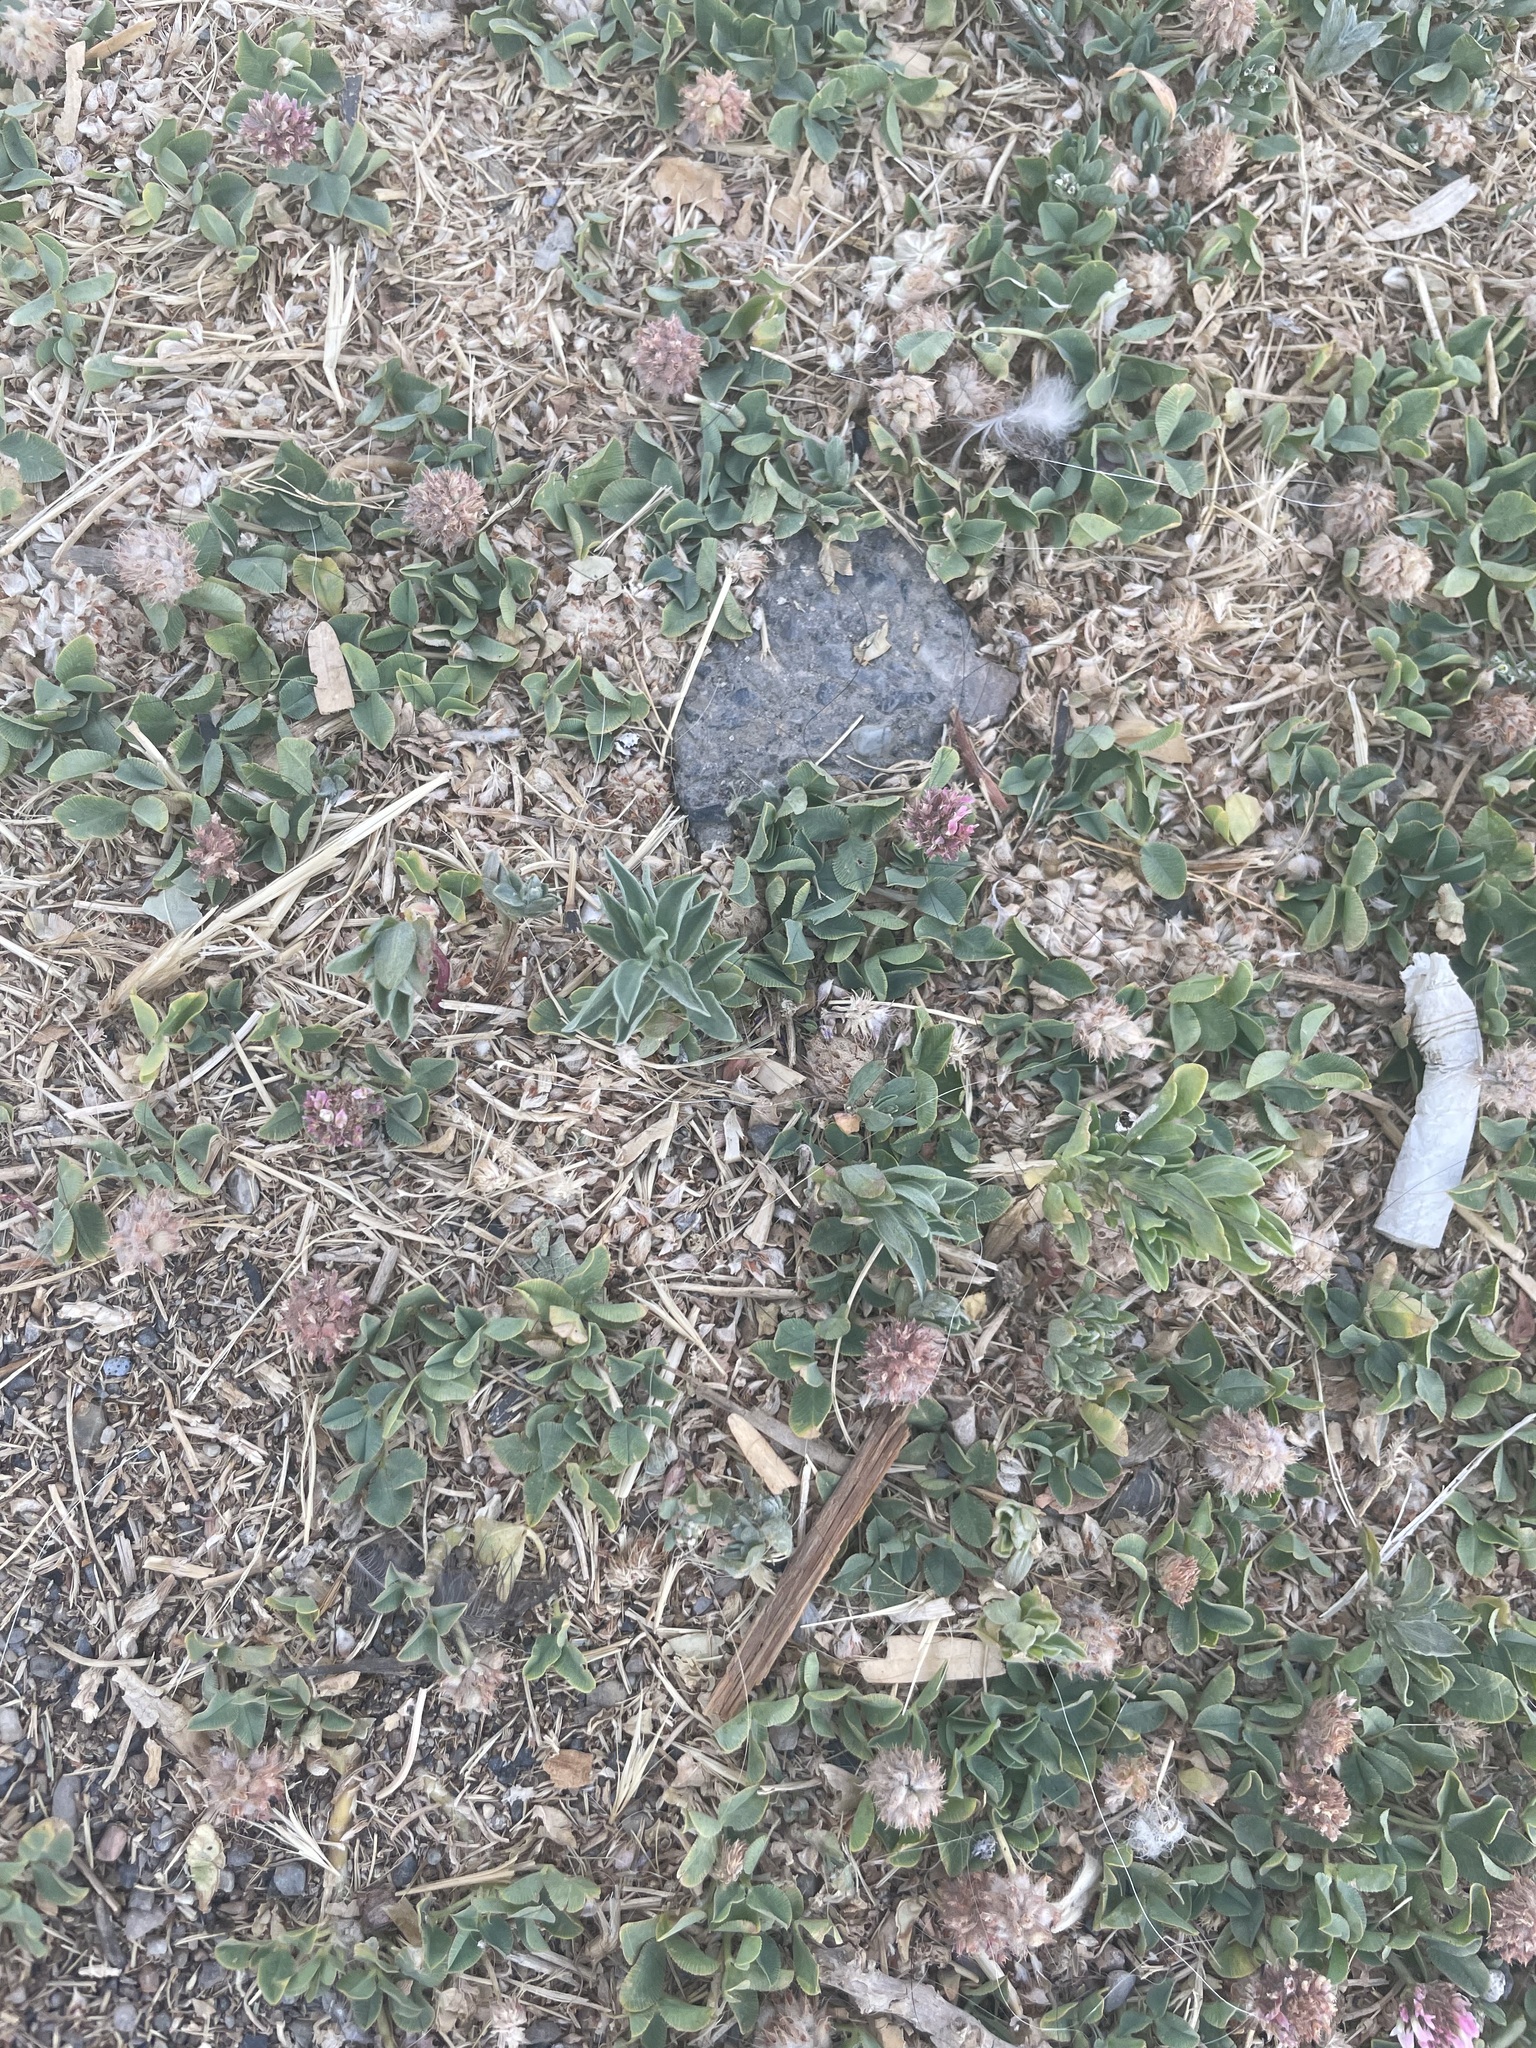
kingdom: Plantae
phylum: Tracheophyta
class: Magnoliopsida
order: Fabales
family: Fabaceae
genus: Trifolium
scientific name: Trifolium fragiferum
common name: Strawberry clover
